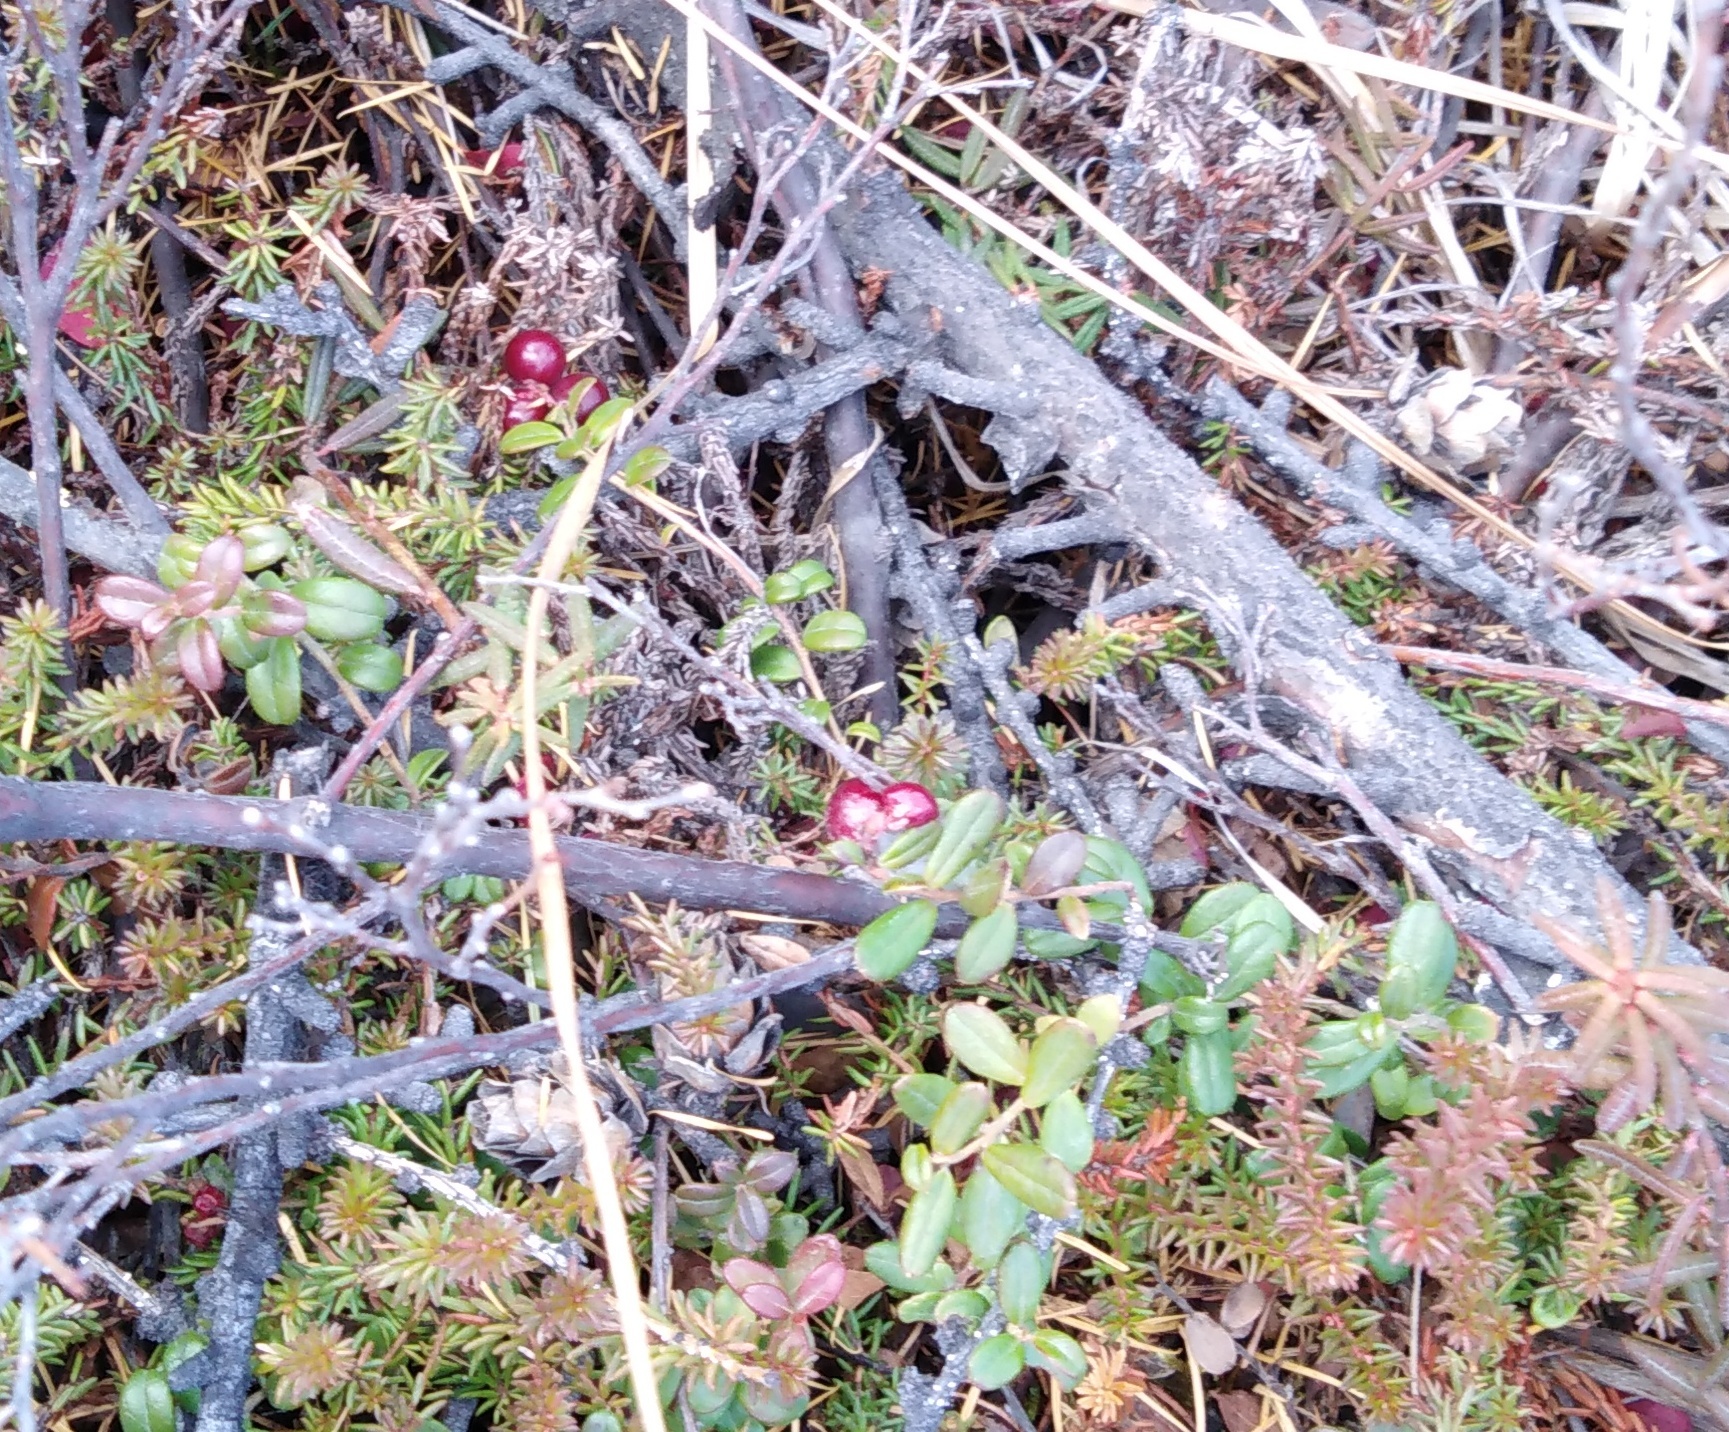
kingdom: Plantae
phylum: Tracheophyta
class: Magnoliopsida
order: Ericales
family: Ericaceae
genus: Vaccinium
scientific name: Vaccinium vitis-idaea
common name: Cowberry
